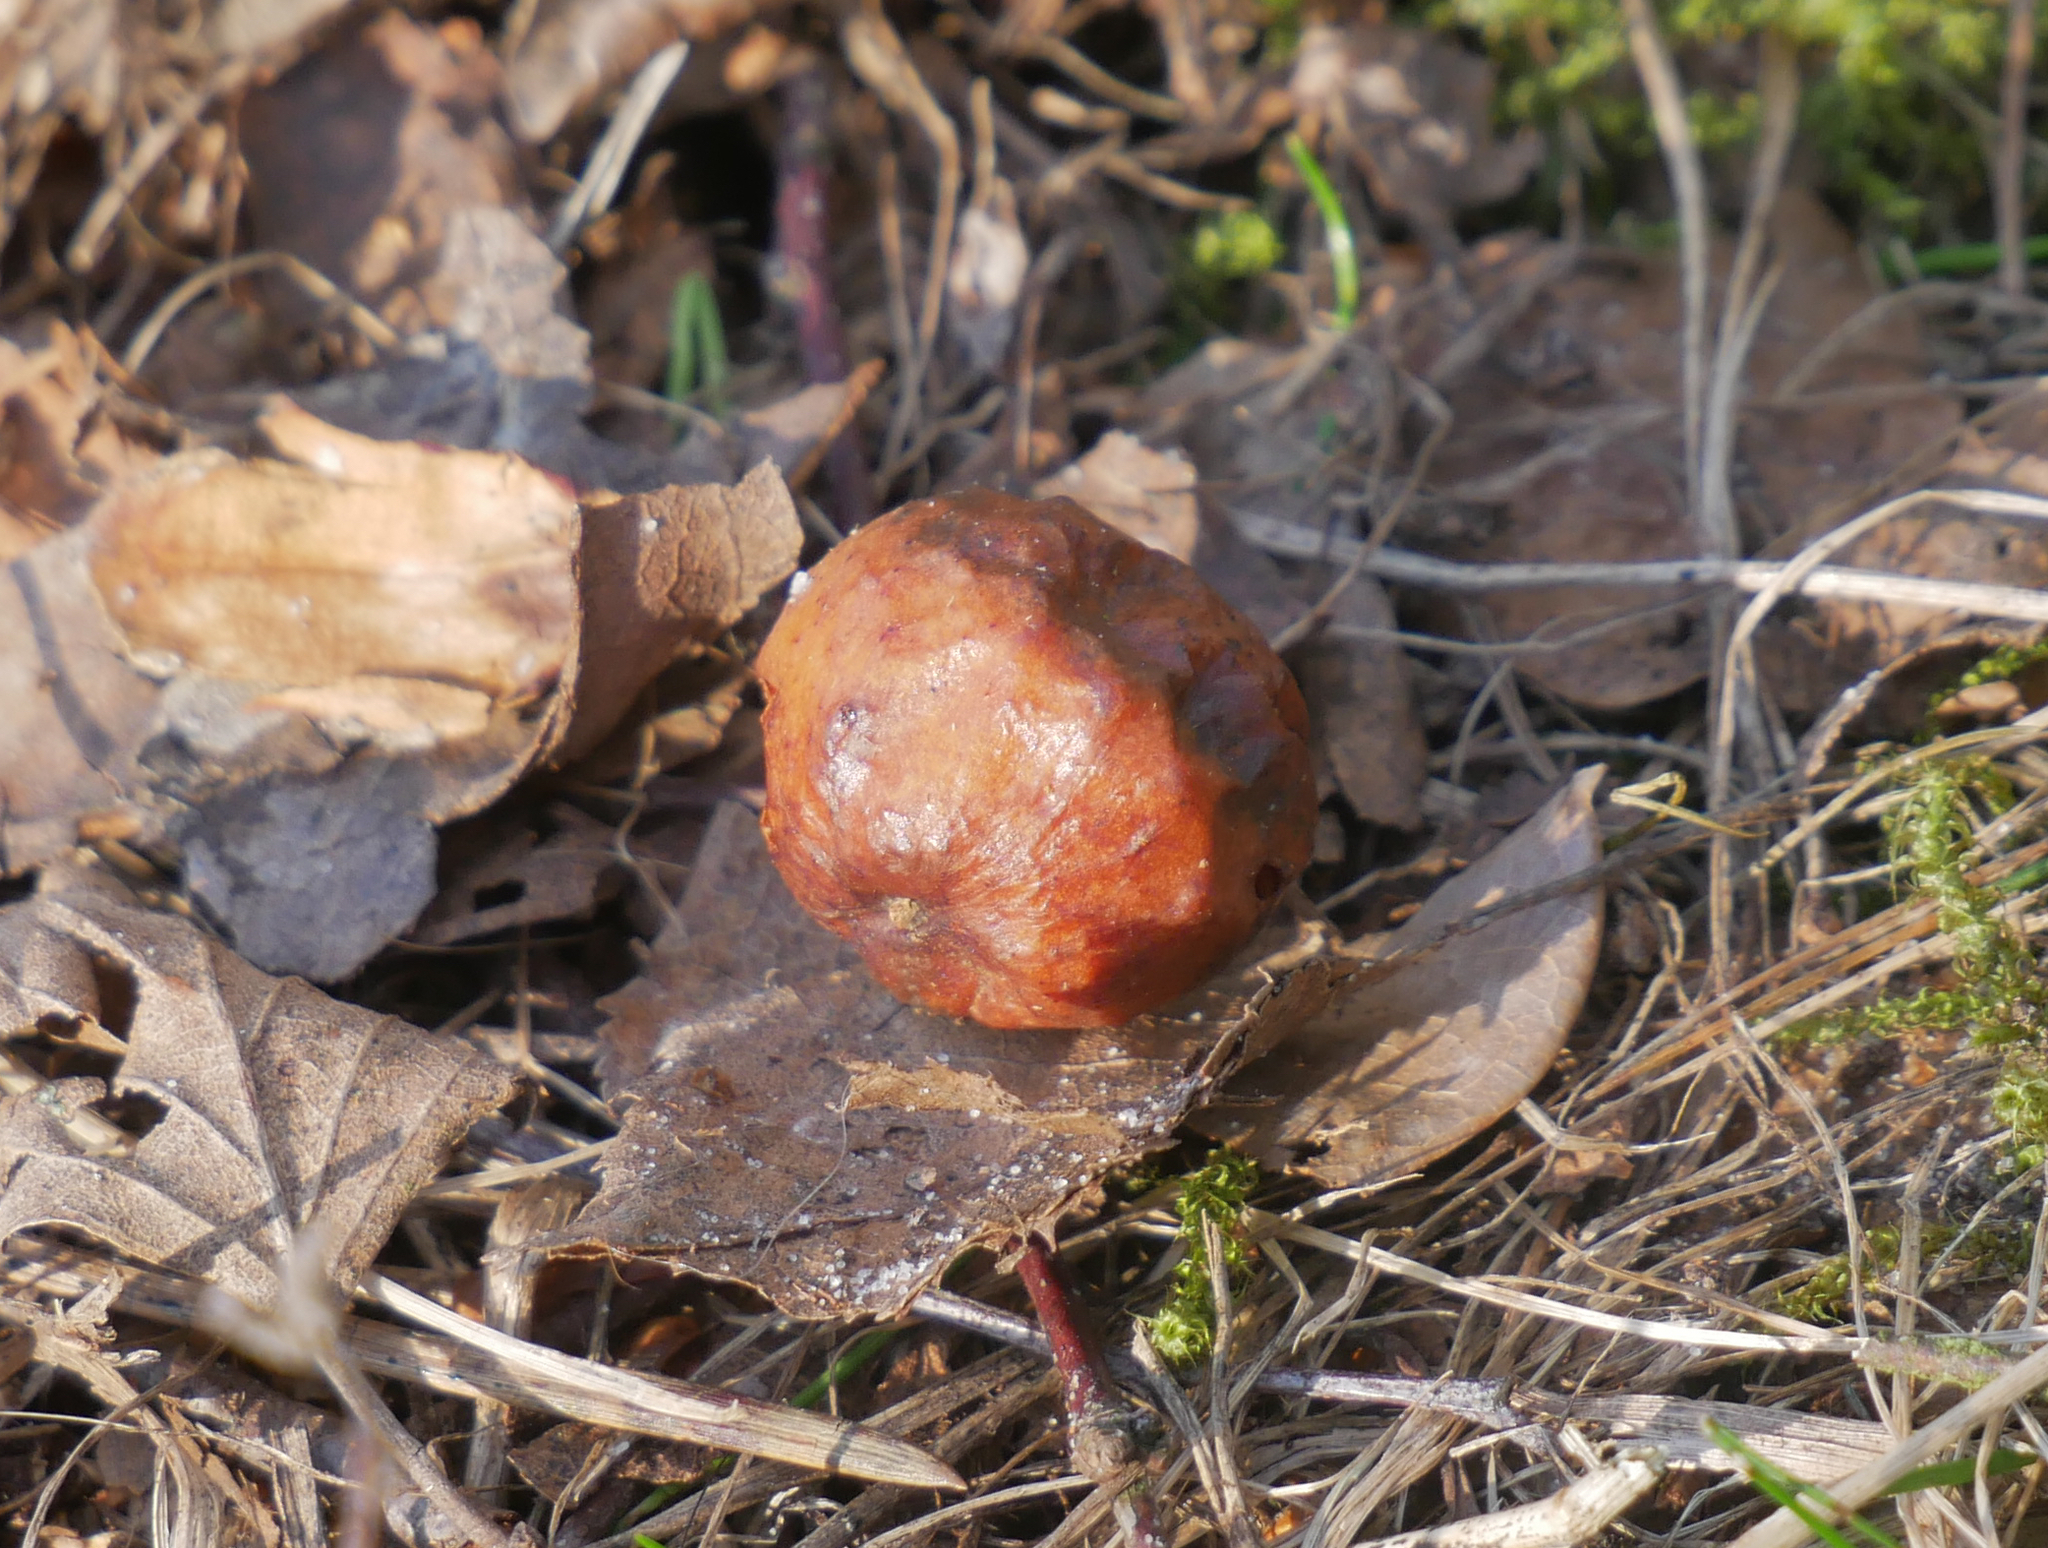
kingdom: Animalia
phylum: Arthropoda
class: Insecta
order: Hymenoptera
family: Cynipidae
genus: Cynips
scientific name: Cynips quercusfolii
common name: Cherry gall
